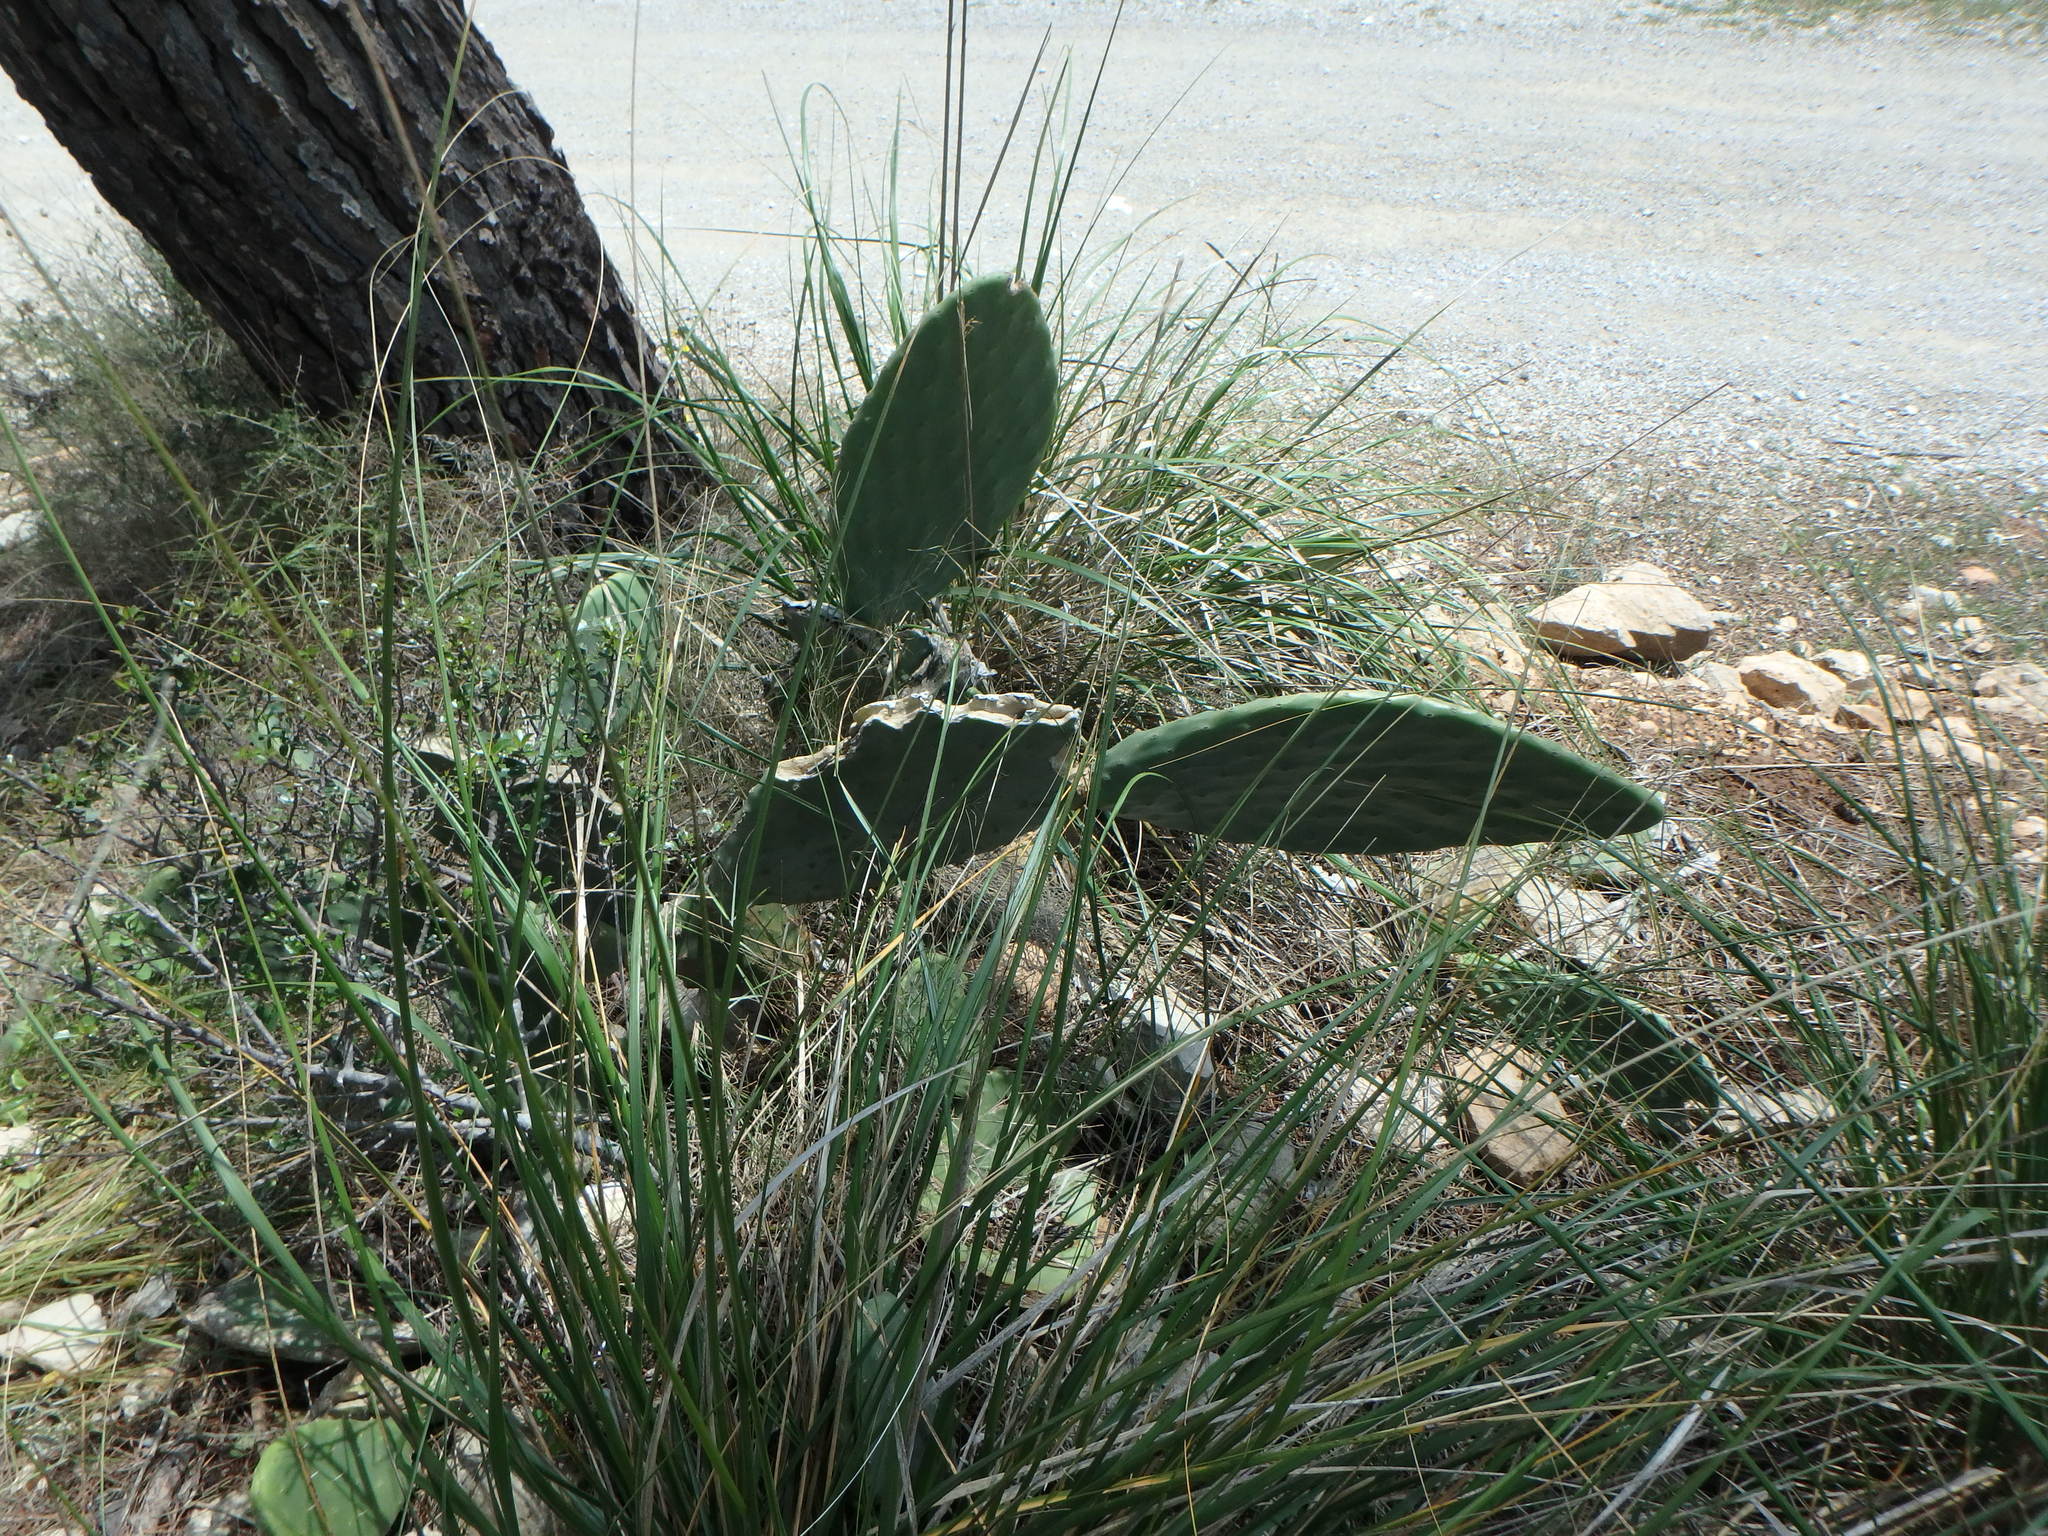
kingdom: Plantae
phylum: Tracheophyta
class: Magnoliopsida
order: Caryophyllales
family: Cactaceae
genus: Opuntia
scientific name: Opuntia ficus-indica
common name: Barbary fig
